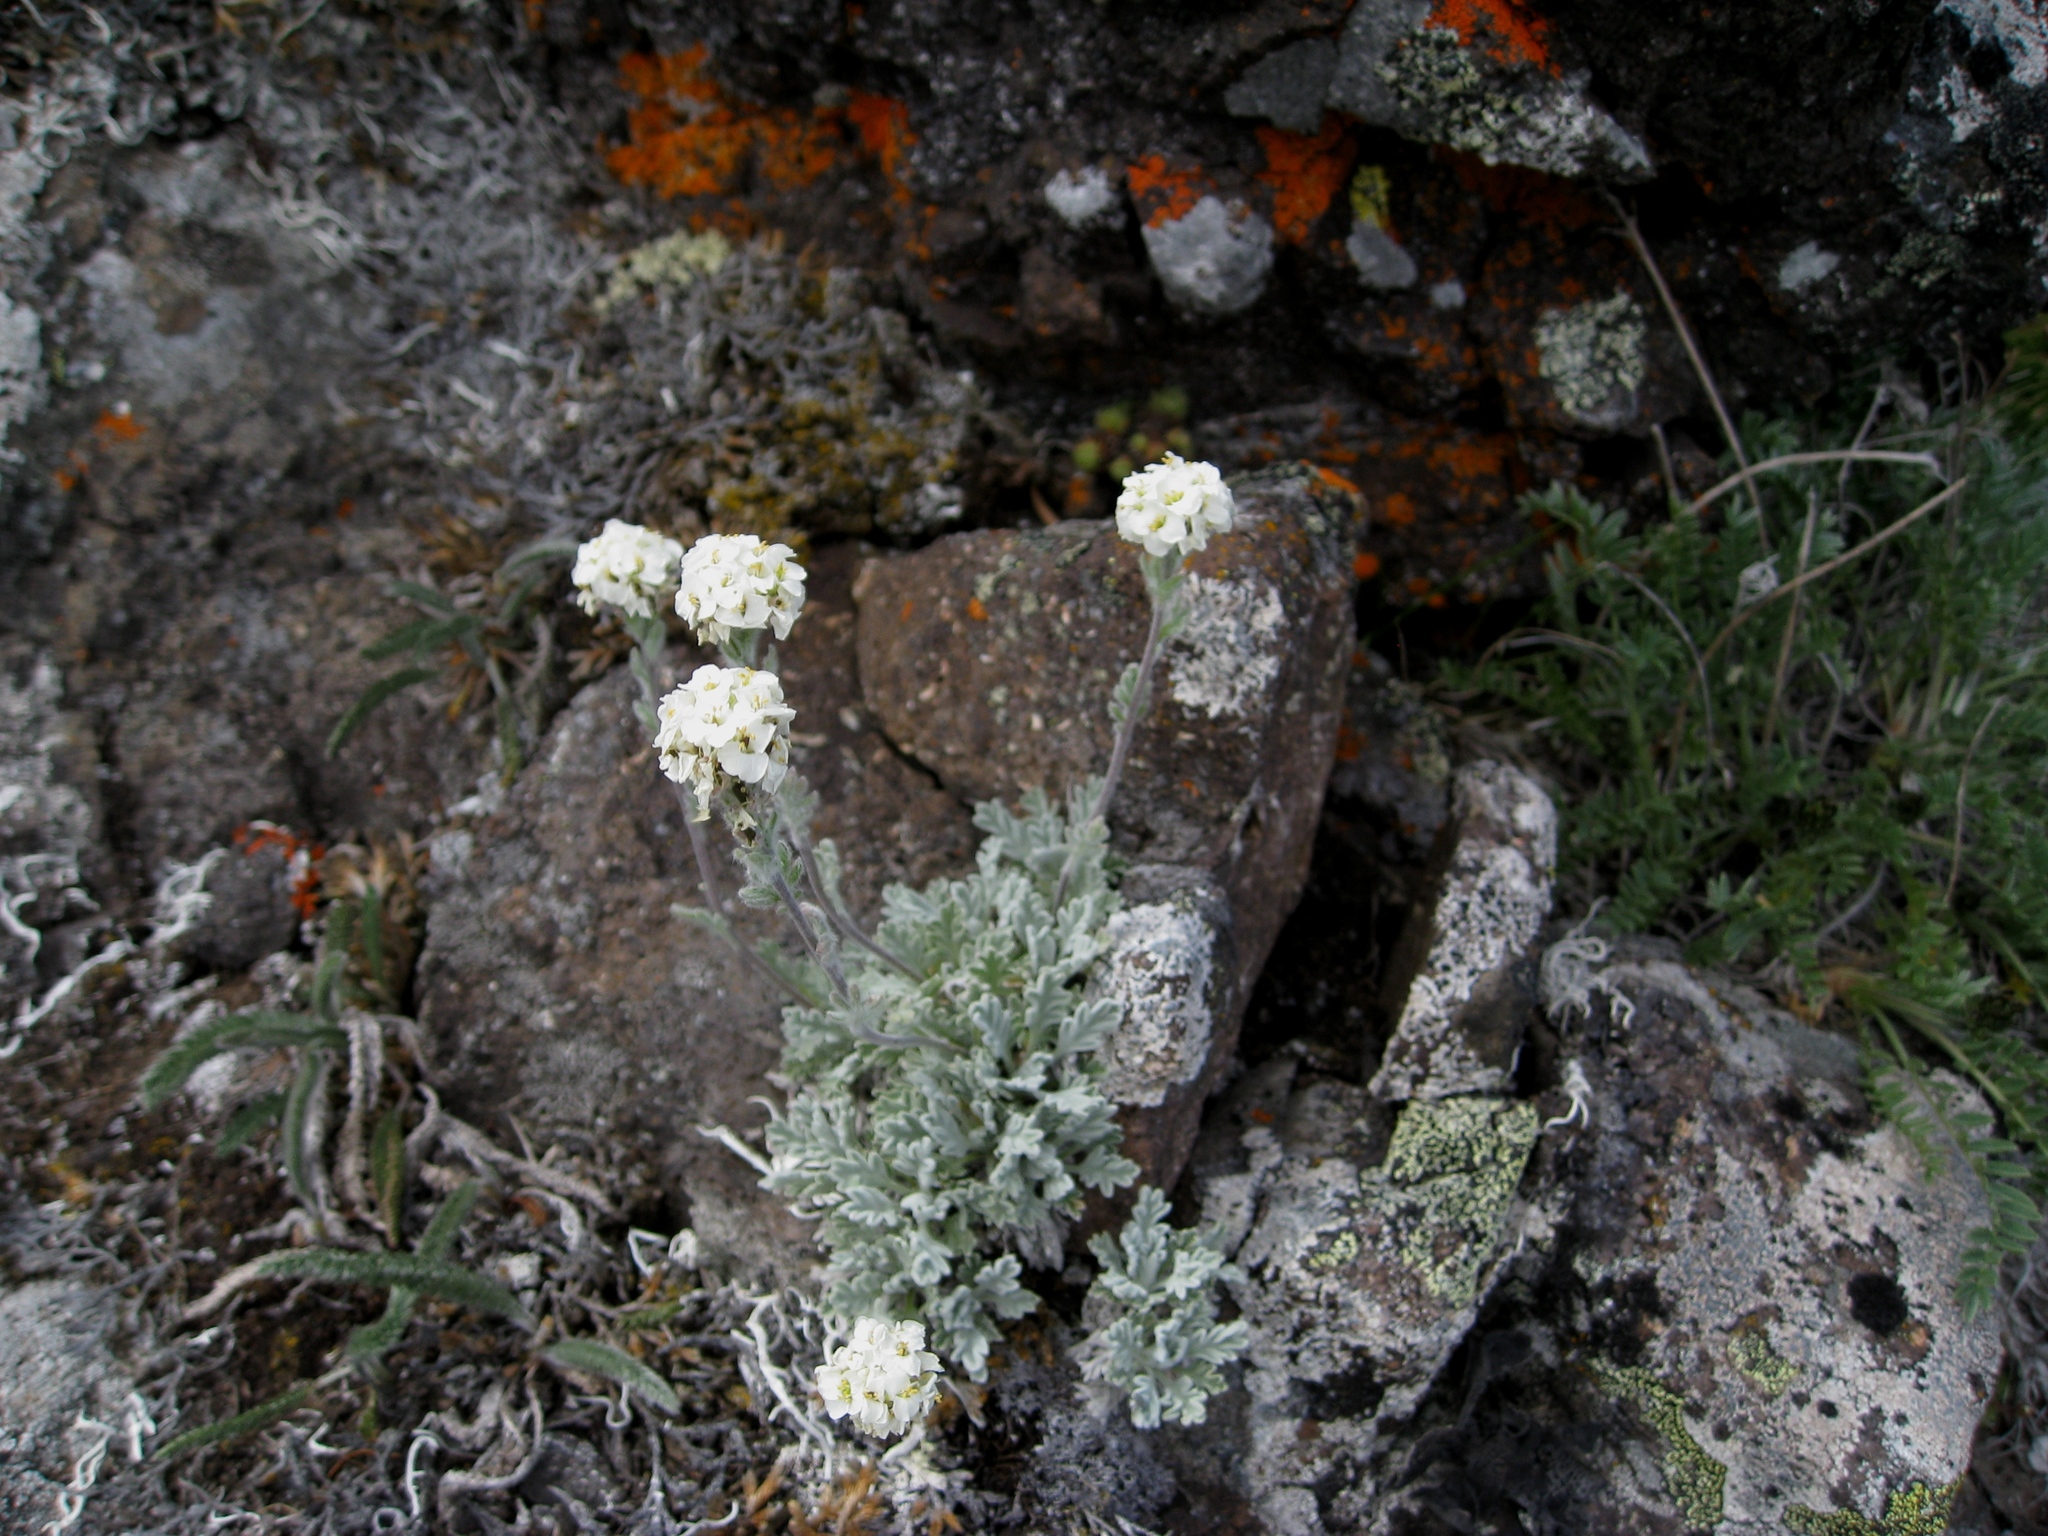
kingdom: Plantae
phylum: Tracheophyta
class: Magnoliopsida
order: Brassicales
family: Brassicaceae
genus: Smelowskia
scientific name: Smelowskia americana
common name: American false candytuft
